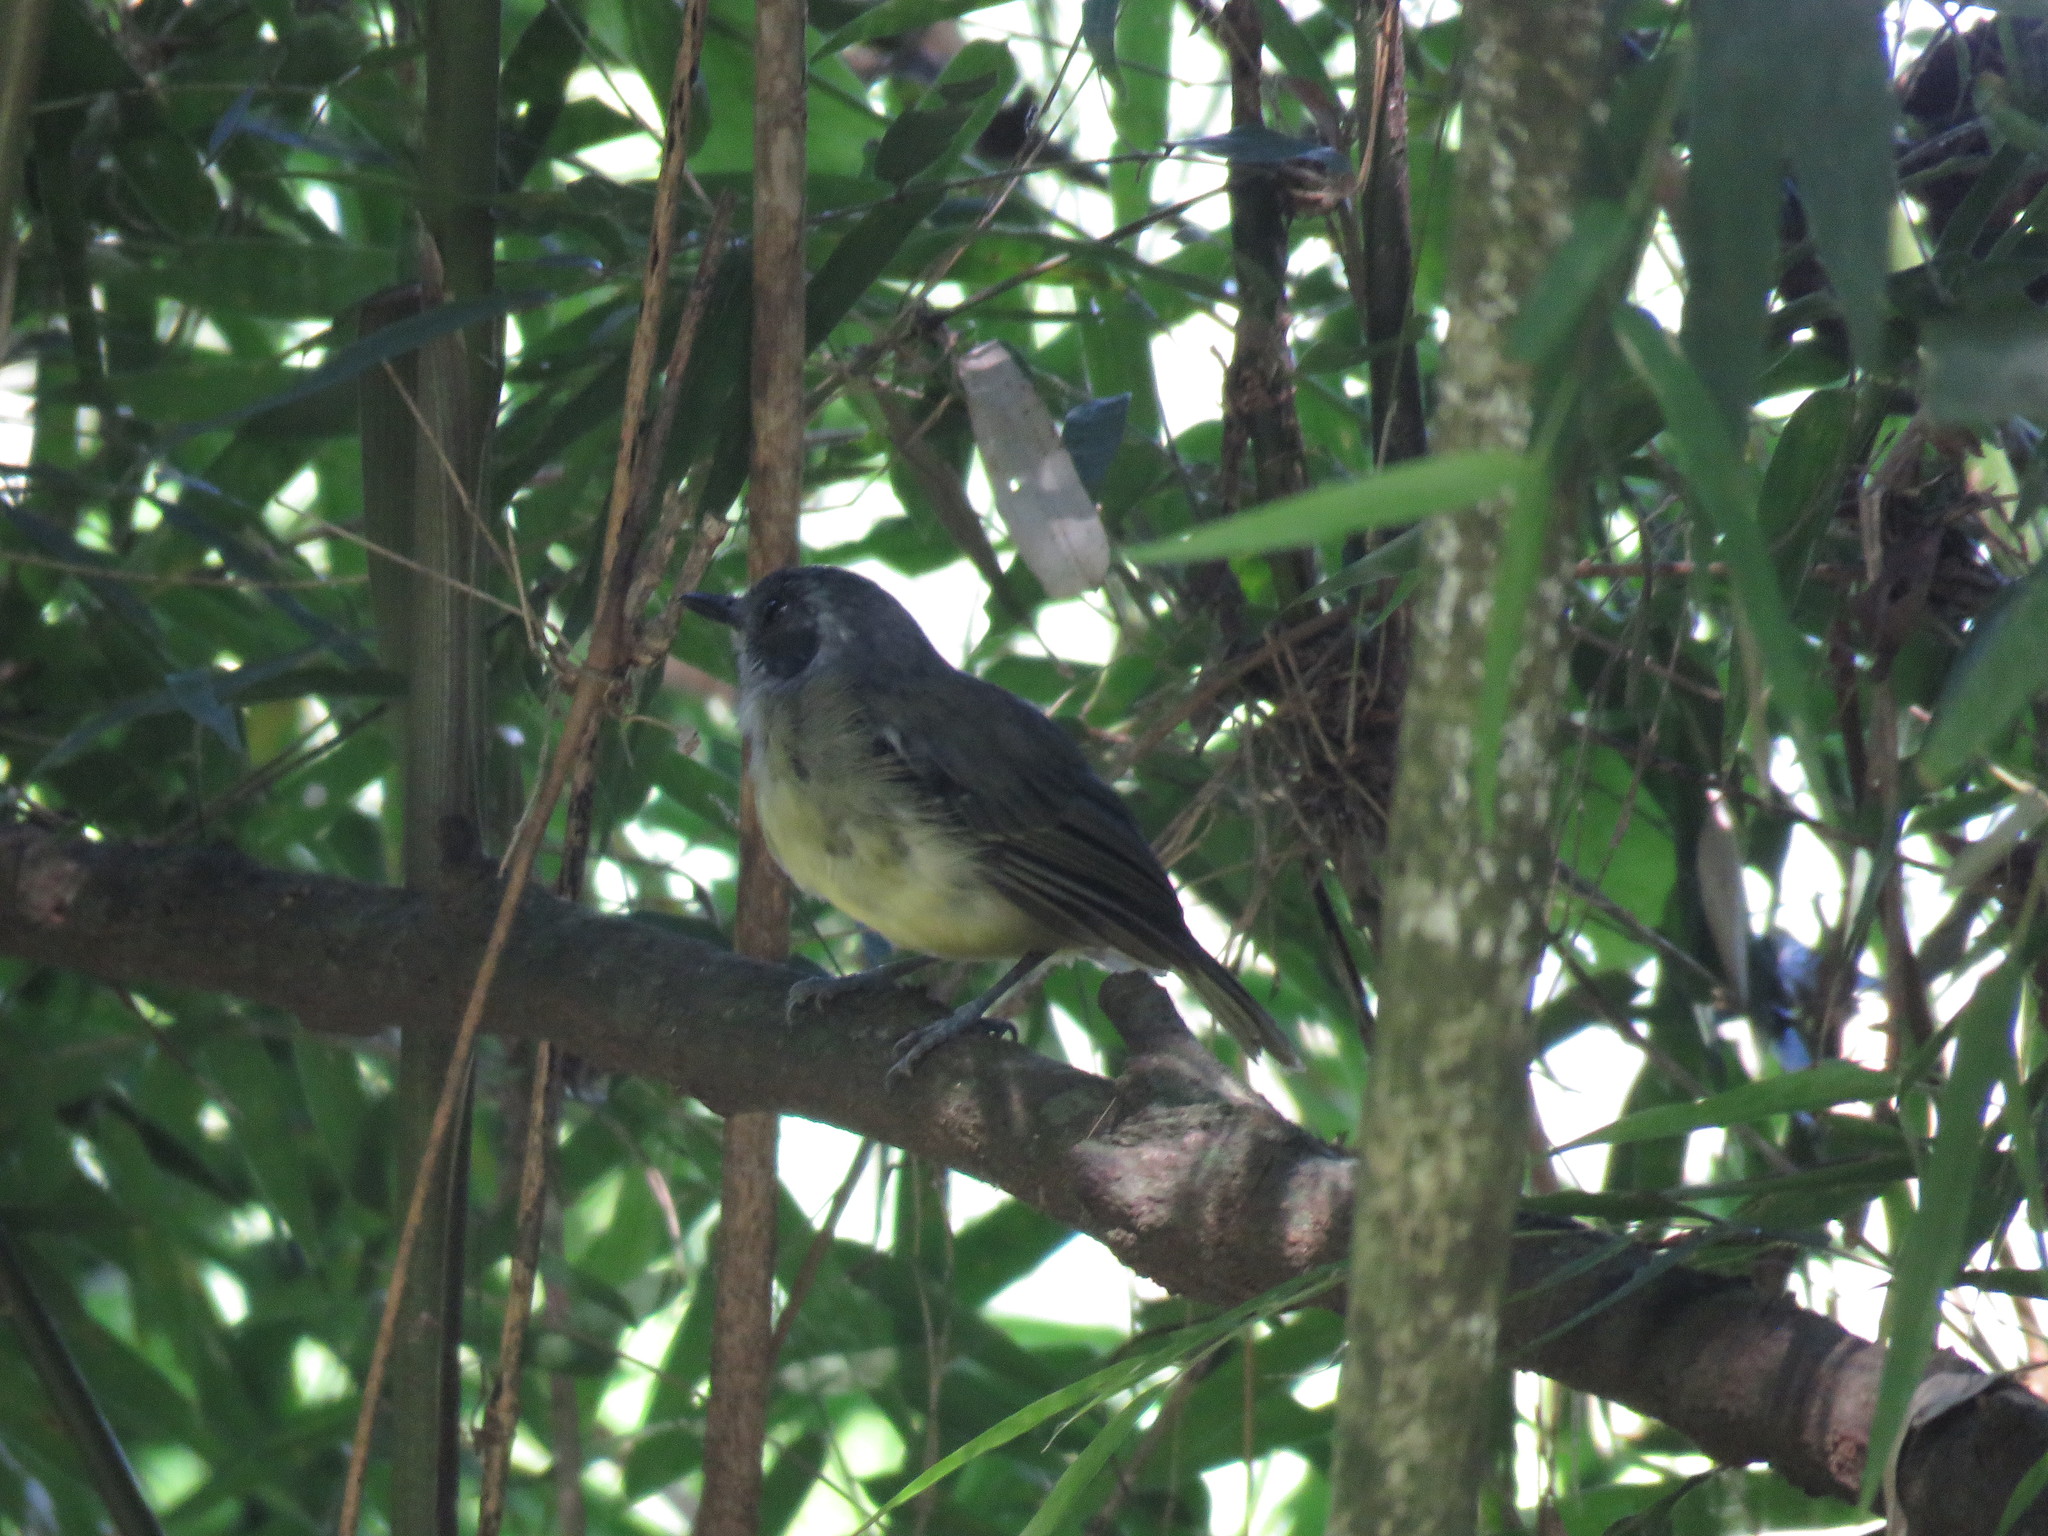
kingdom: Animalia
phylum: Chordata
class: Aves
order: Passeriformes
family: Thamnophilidae
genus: Dysithamnus
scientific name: Dysithamnus mentalis
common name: Plain antvireo
